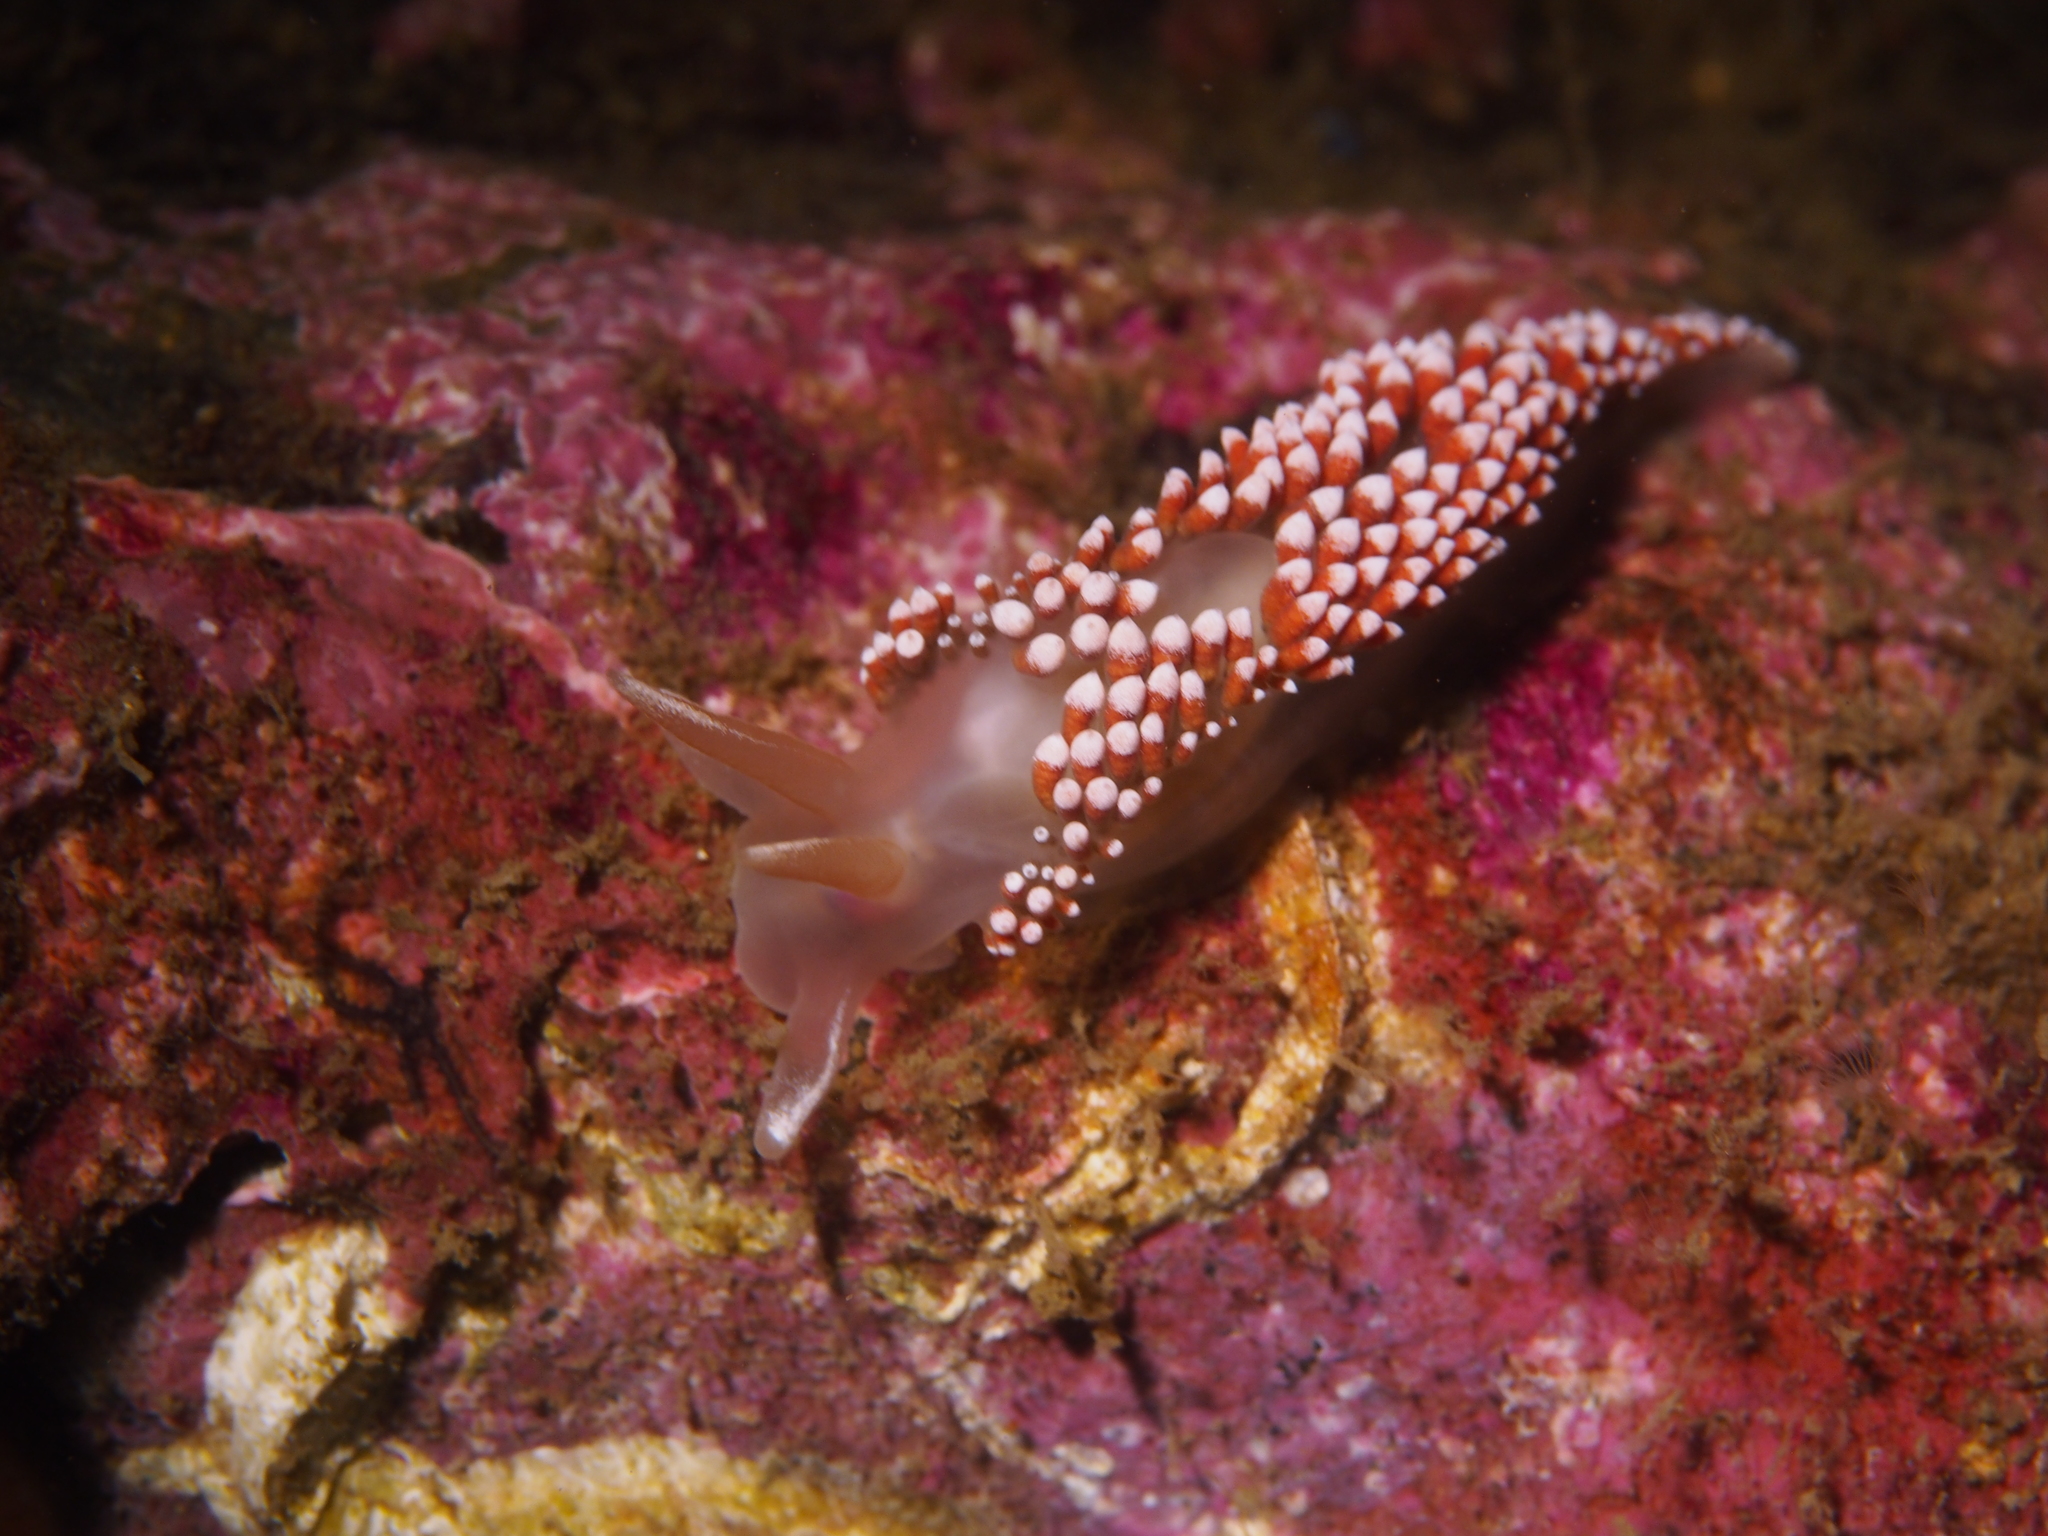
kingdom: Animalia
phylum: Mollusca
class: Gastropoda
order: Nudibranchia
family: Coryphellidae
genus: Coryphella
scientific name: Coryphella verrucosa
